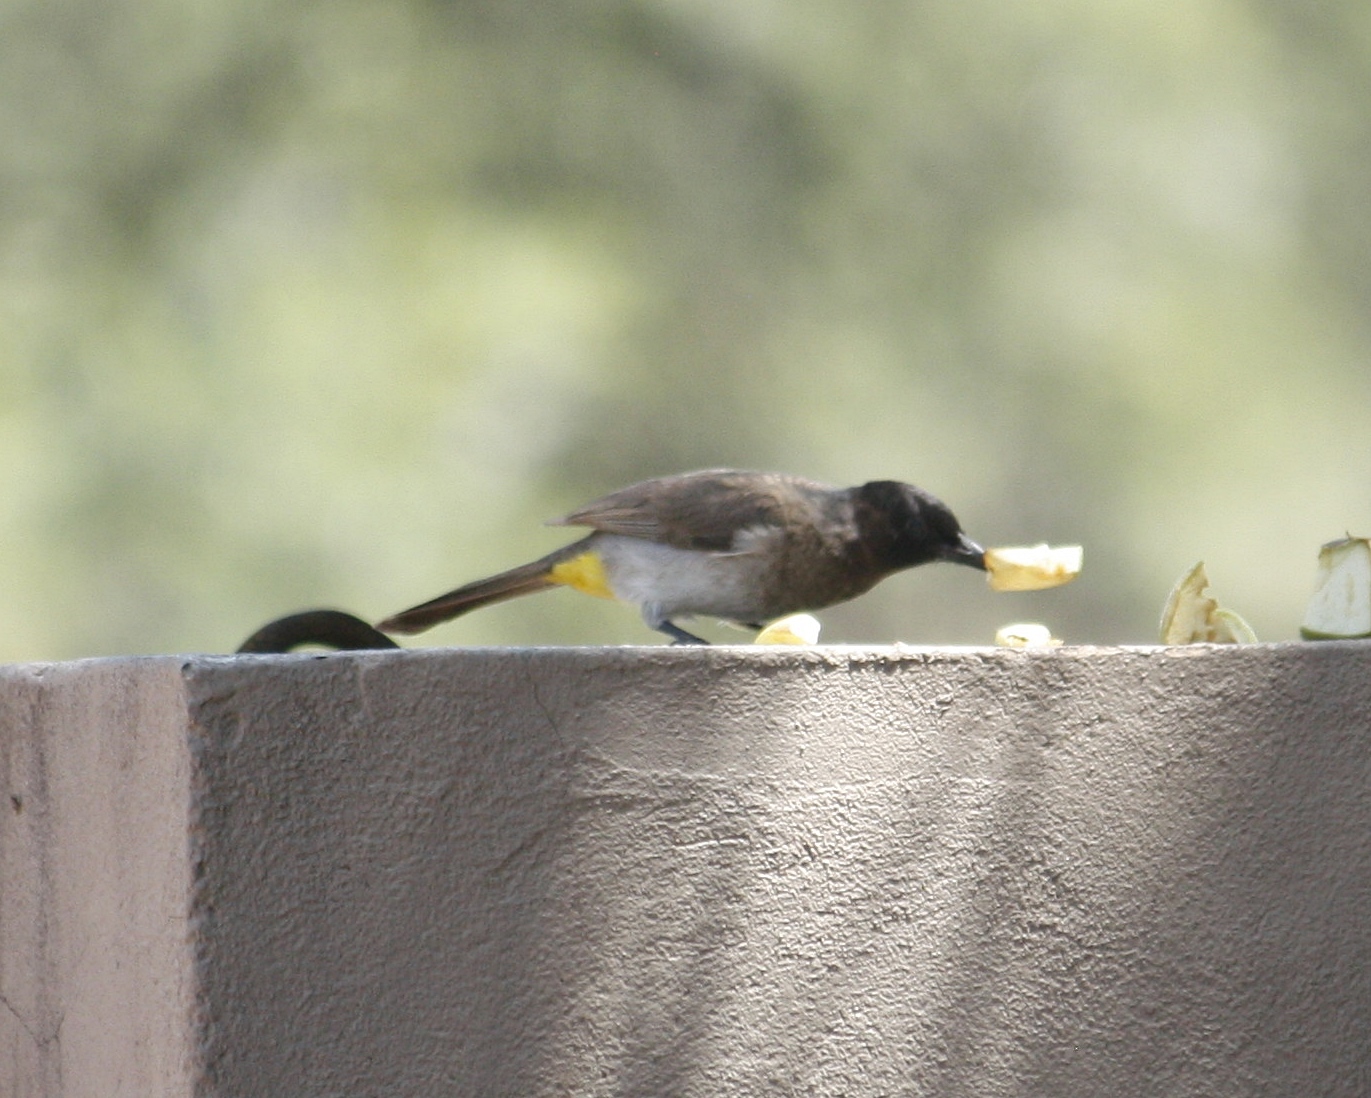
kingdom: Animalia
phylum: Chordata
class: Aves
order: Passeriformes
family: Pycnonotidae
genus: Pycnonotus
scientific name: Pycnonotus barbatus
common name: Common bulbul
